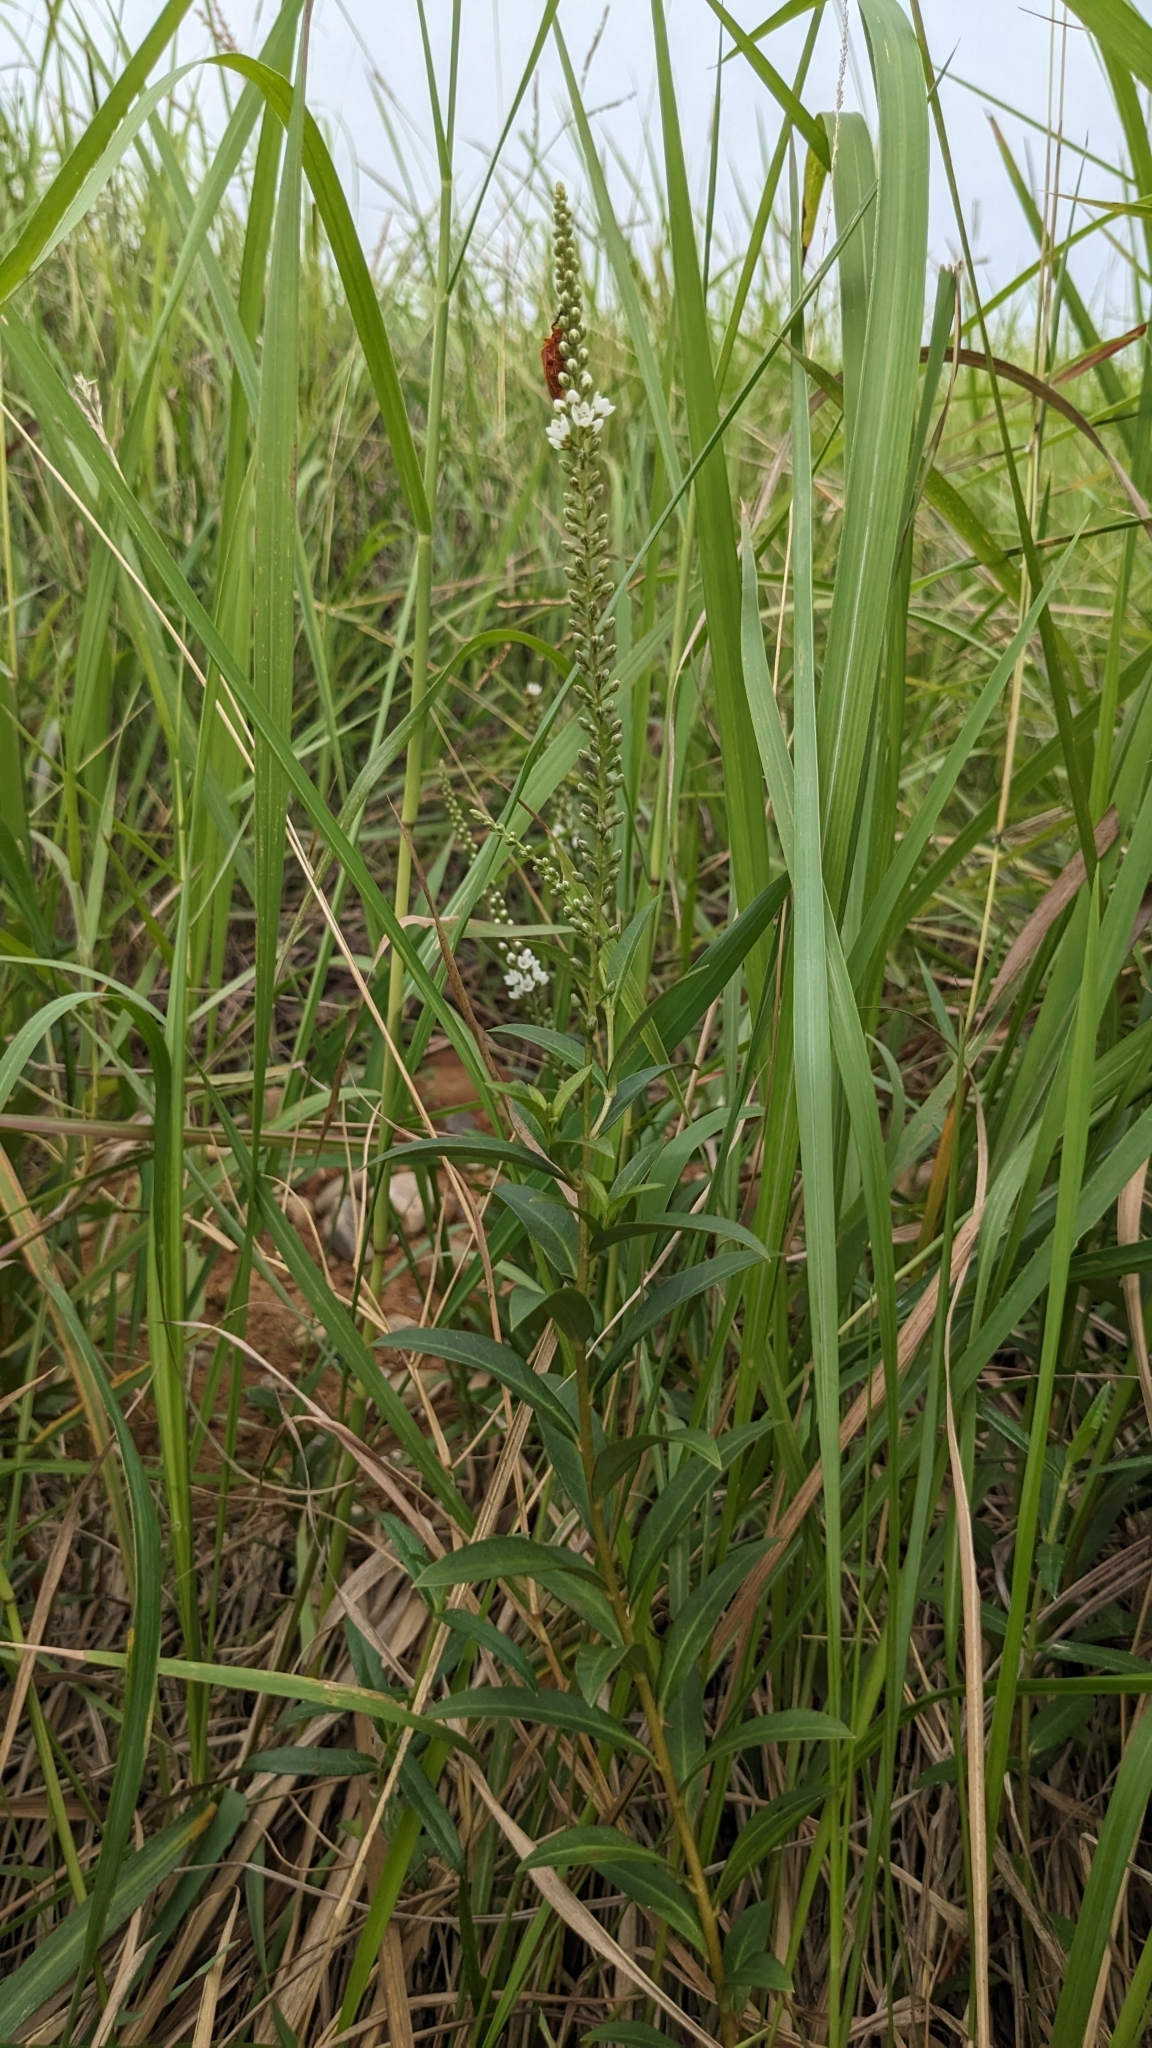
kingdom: Plantae
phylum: Tracheophyta
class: Magnoliopsida
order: Ericales
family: Primulaceae
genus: Lysimachia
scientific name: Lysimachia fortunei
